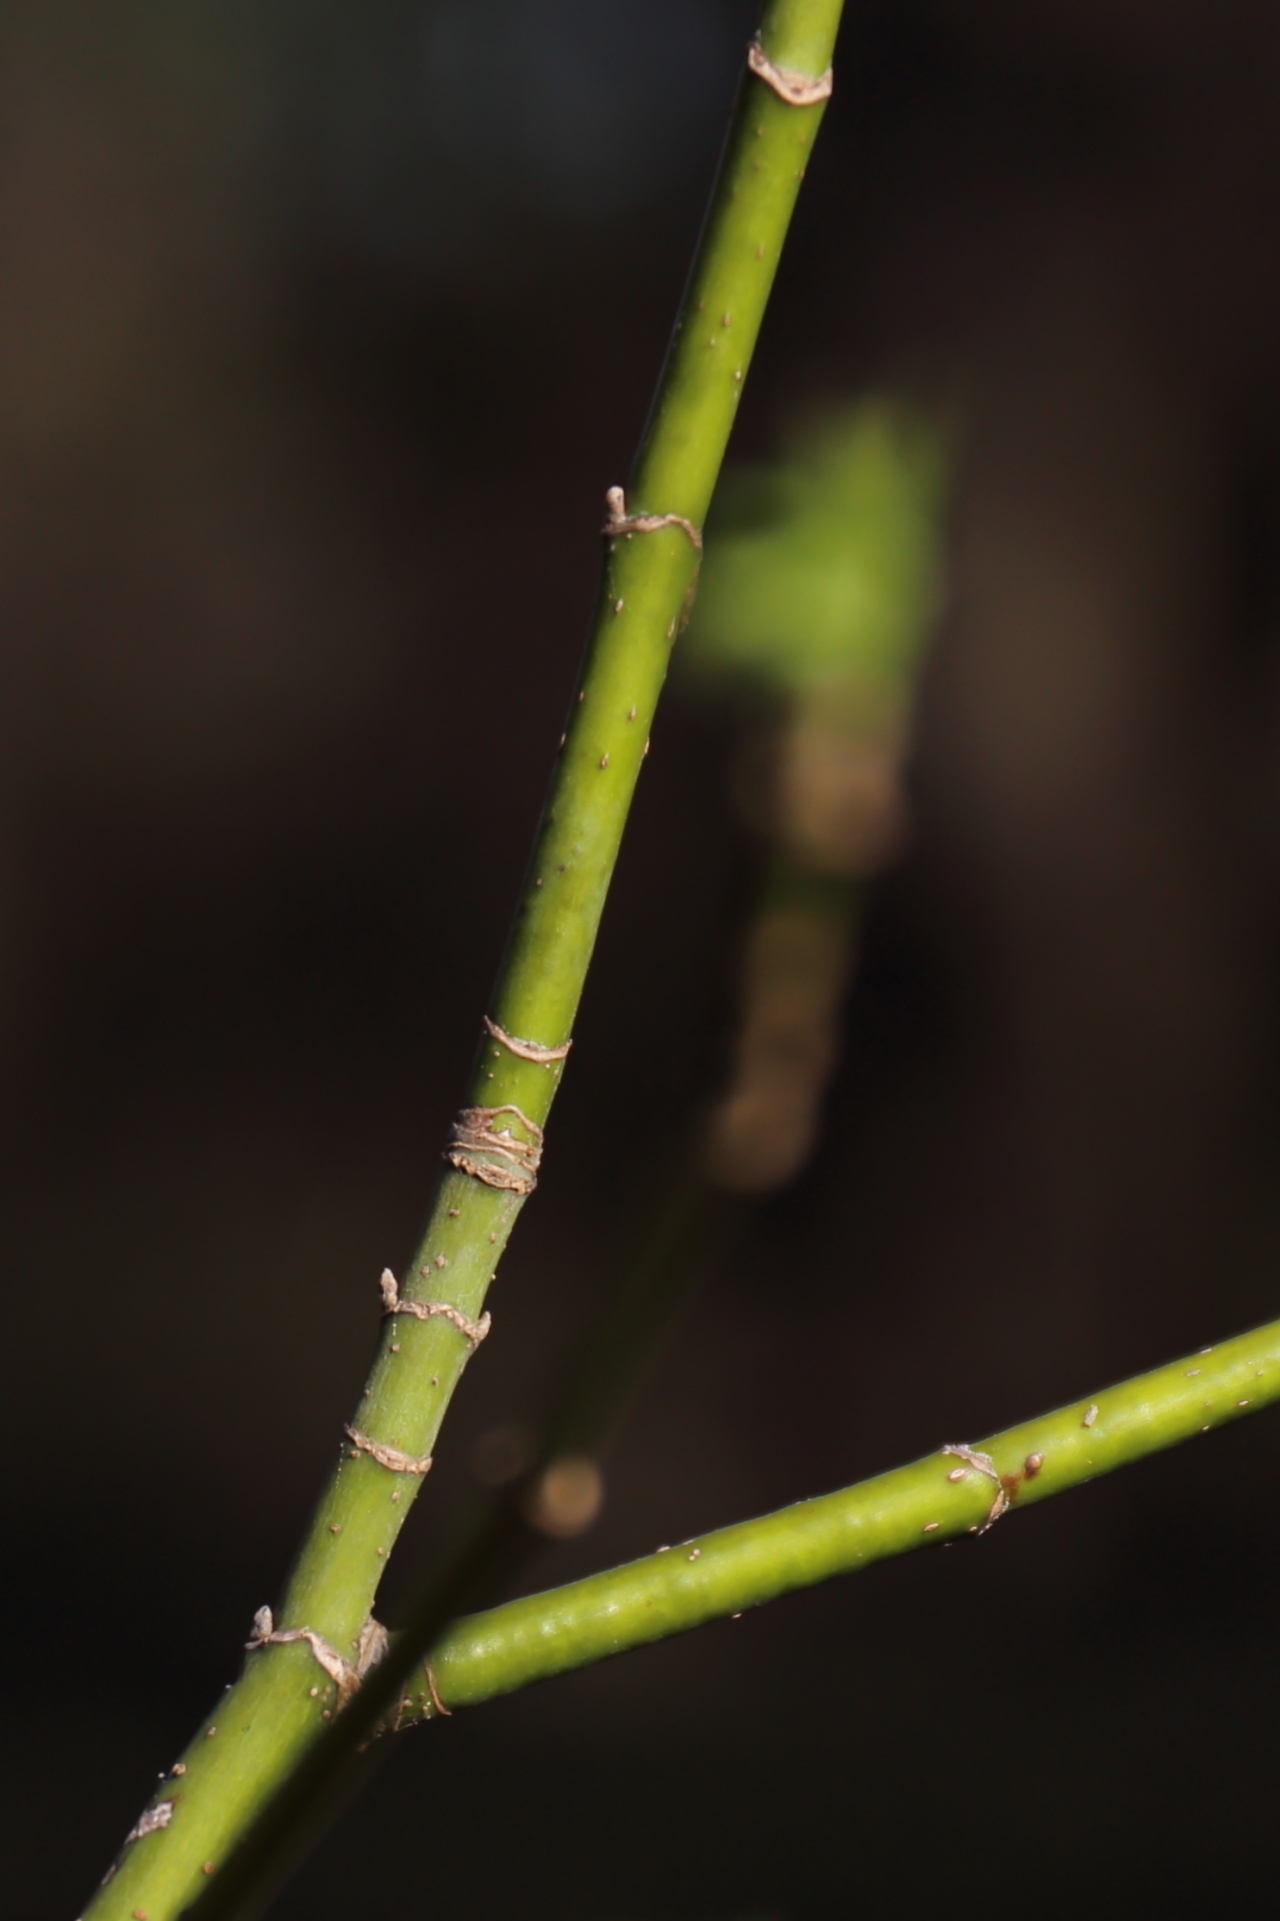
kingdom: Plantae
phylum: Tracheophyta
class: Magnoliopsida
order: Sapindales
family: Sapindaceae
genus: Acer
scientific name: Acer negundo
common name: Ashleaf maple
